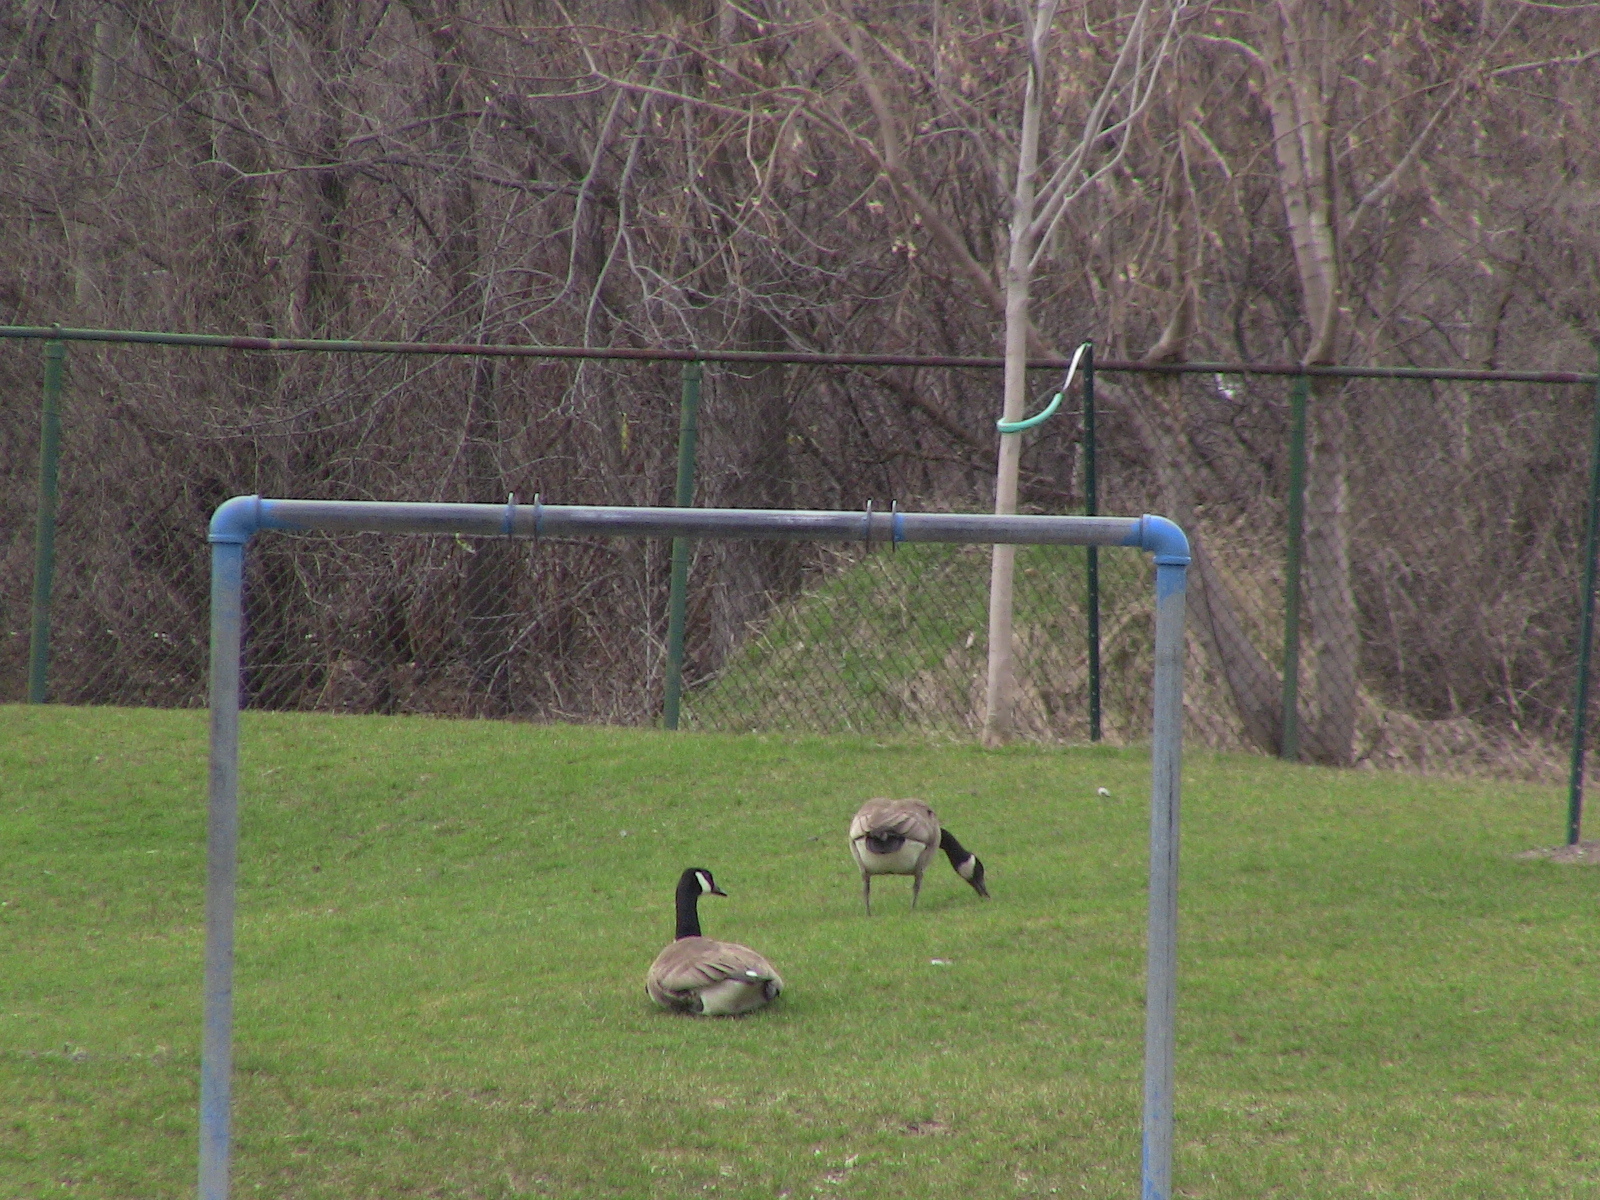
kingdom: Animalia
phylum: Chordata
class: Aves
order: Anseriformes
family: Anatidae
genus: Branta
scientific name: Branta canadensis
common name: Canada goose
